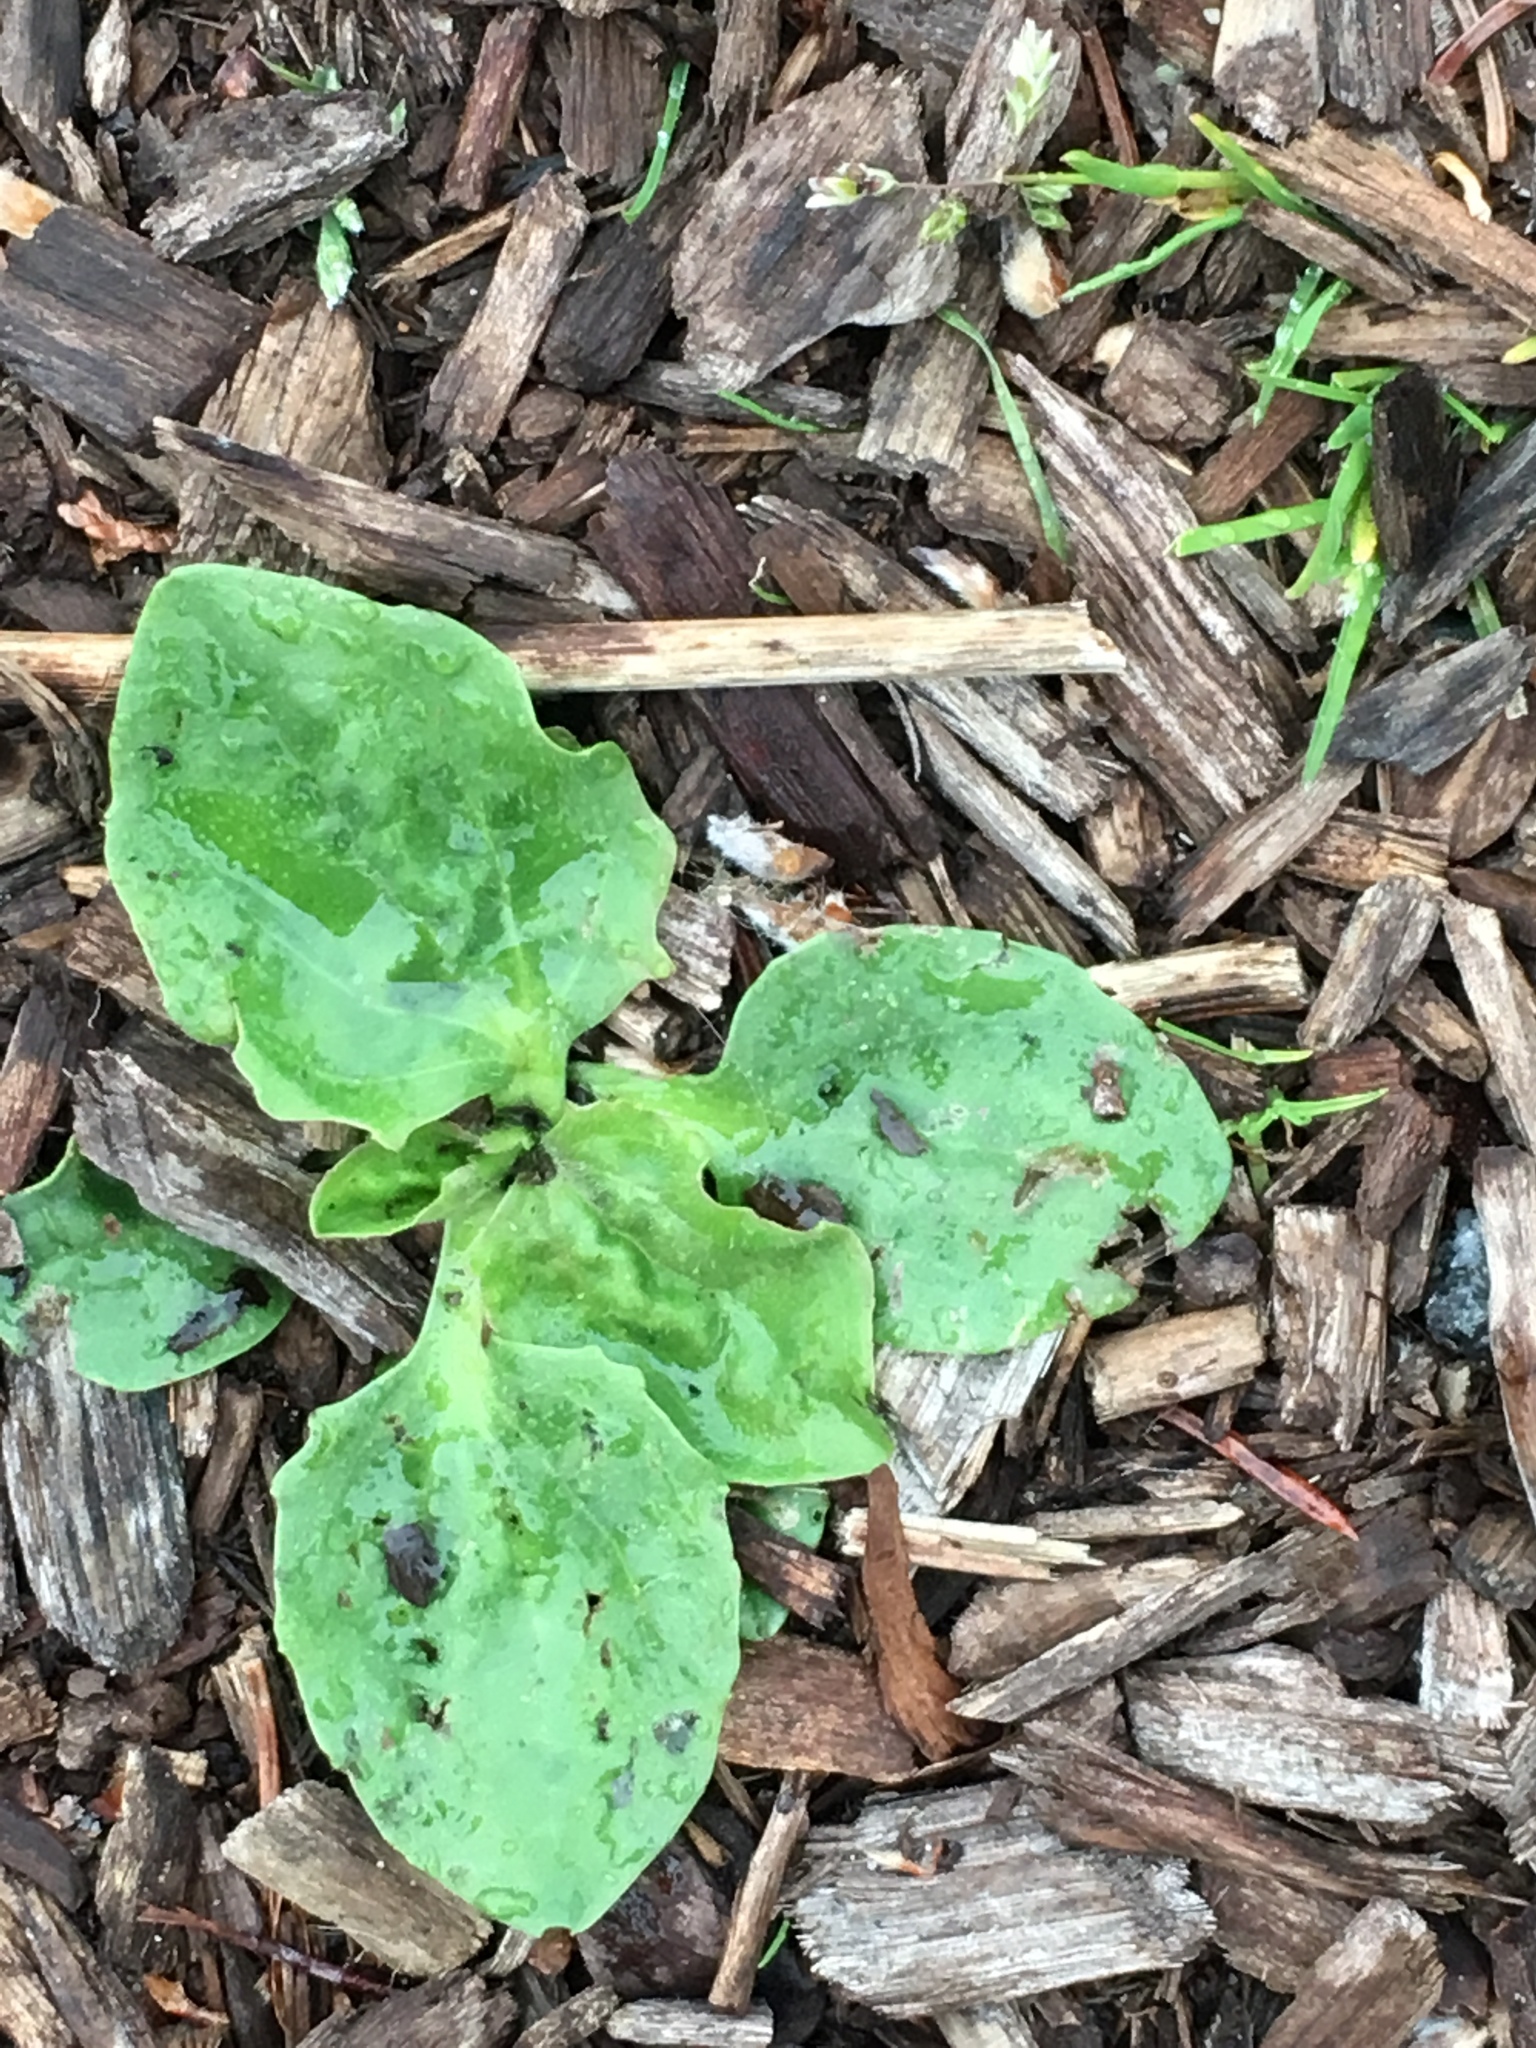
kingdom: Plantae
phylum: Tracheophyta
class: Magnoliopsida
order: Lamiales
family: Plantaginaceae
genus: Plantago
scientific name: Plantago major
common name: Common plantain
